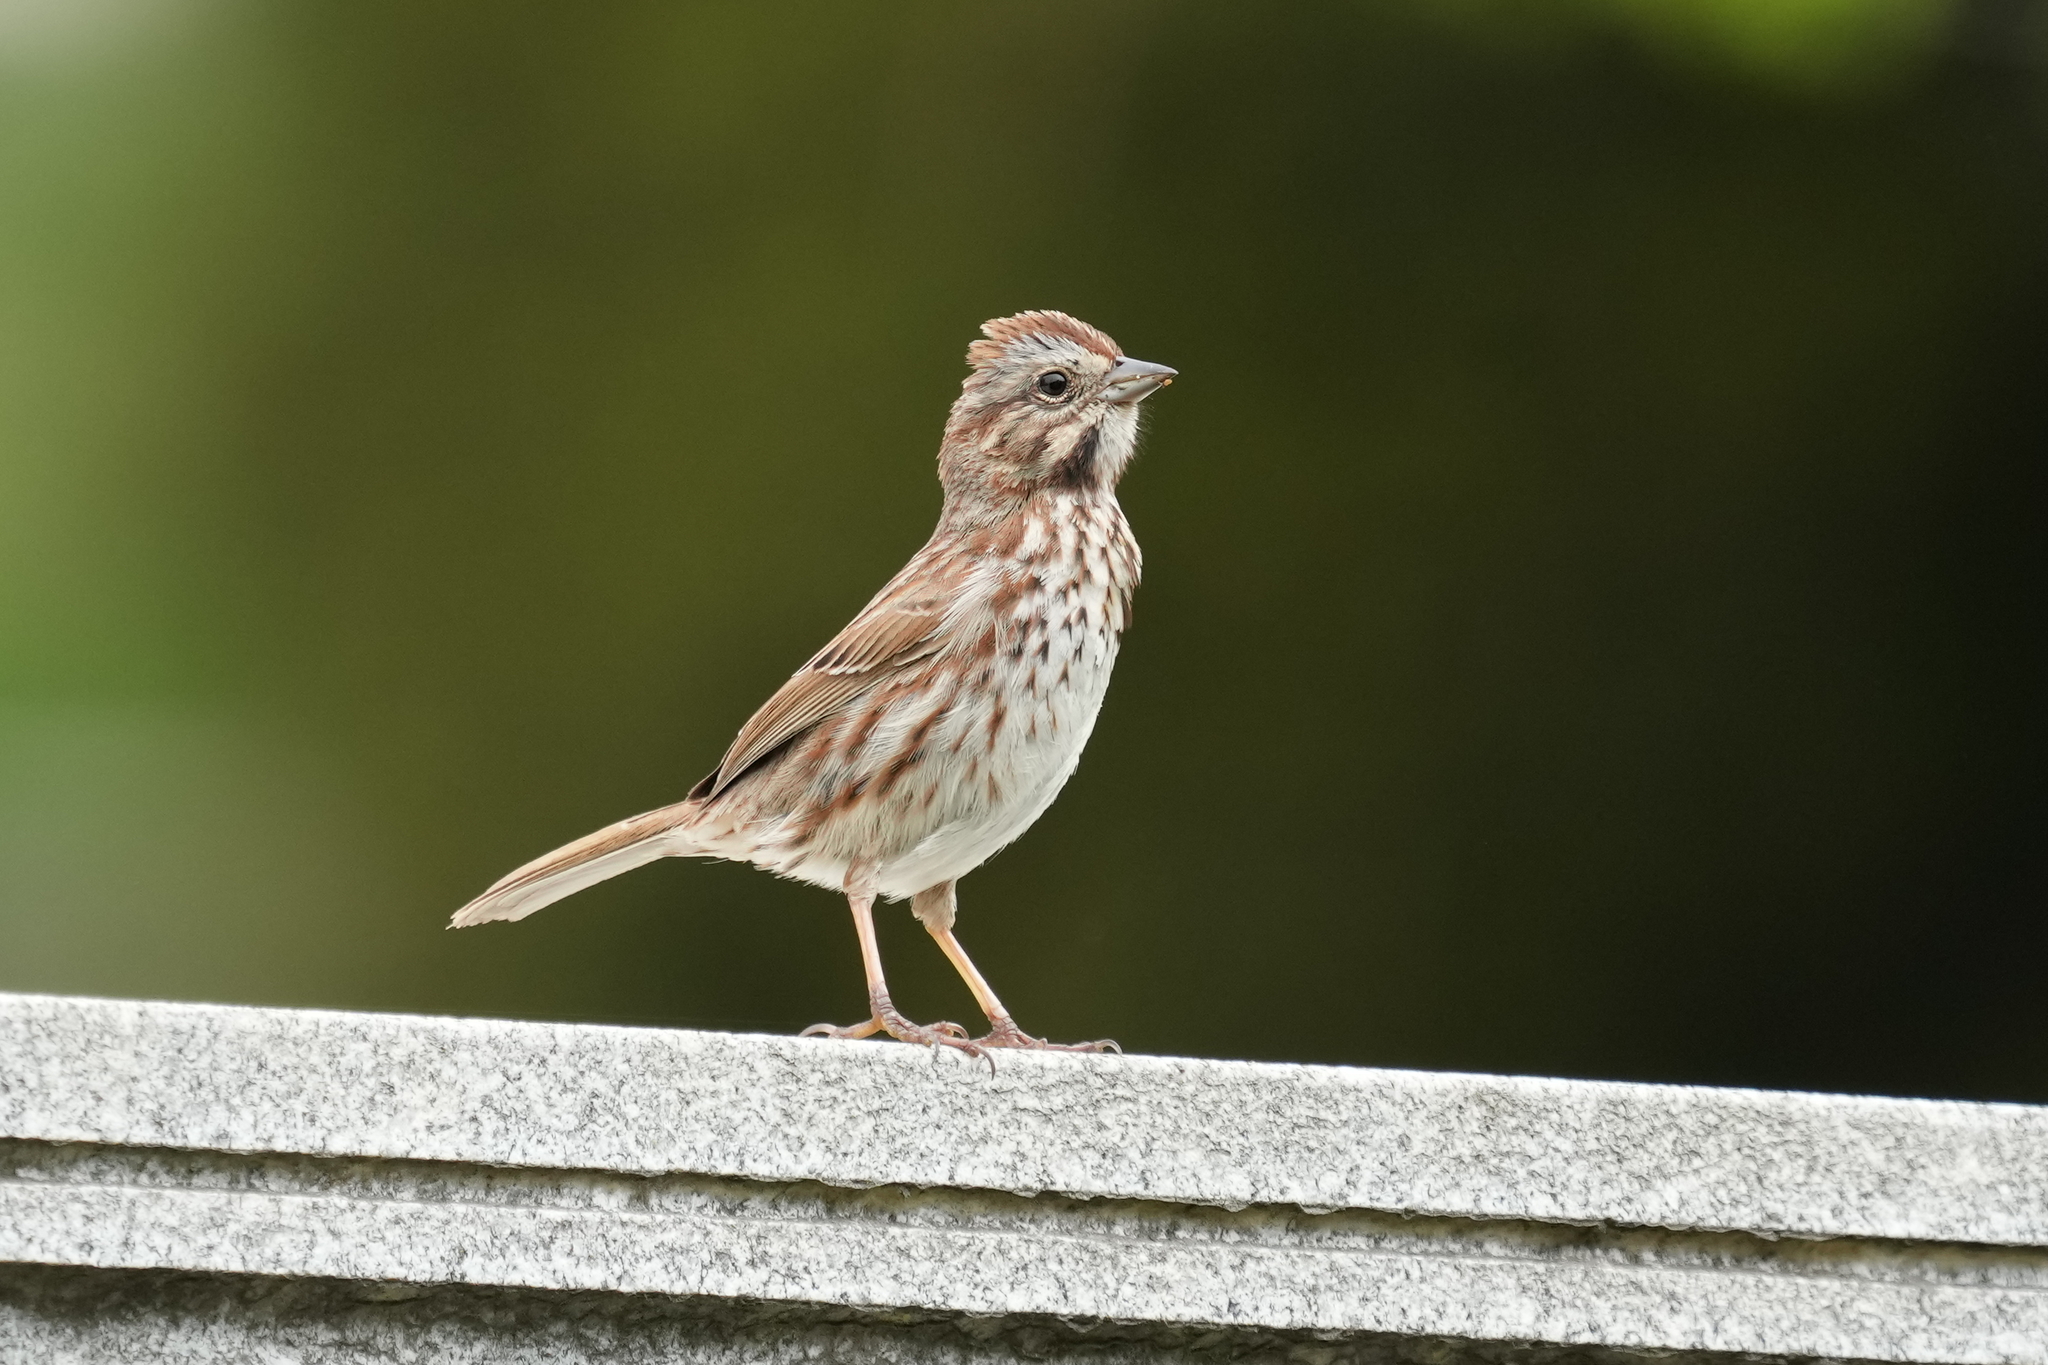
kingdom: Animalia
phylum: Chordata
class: Aves
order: Passeriformes
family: Passerellidae
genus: Melospiza
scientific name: Melospiza melodia
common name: Song sparrow
